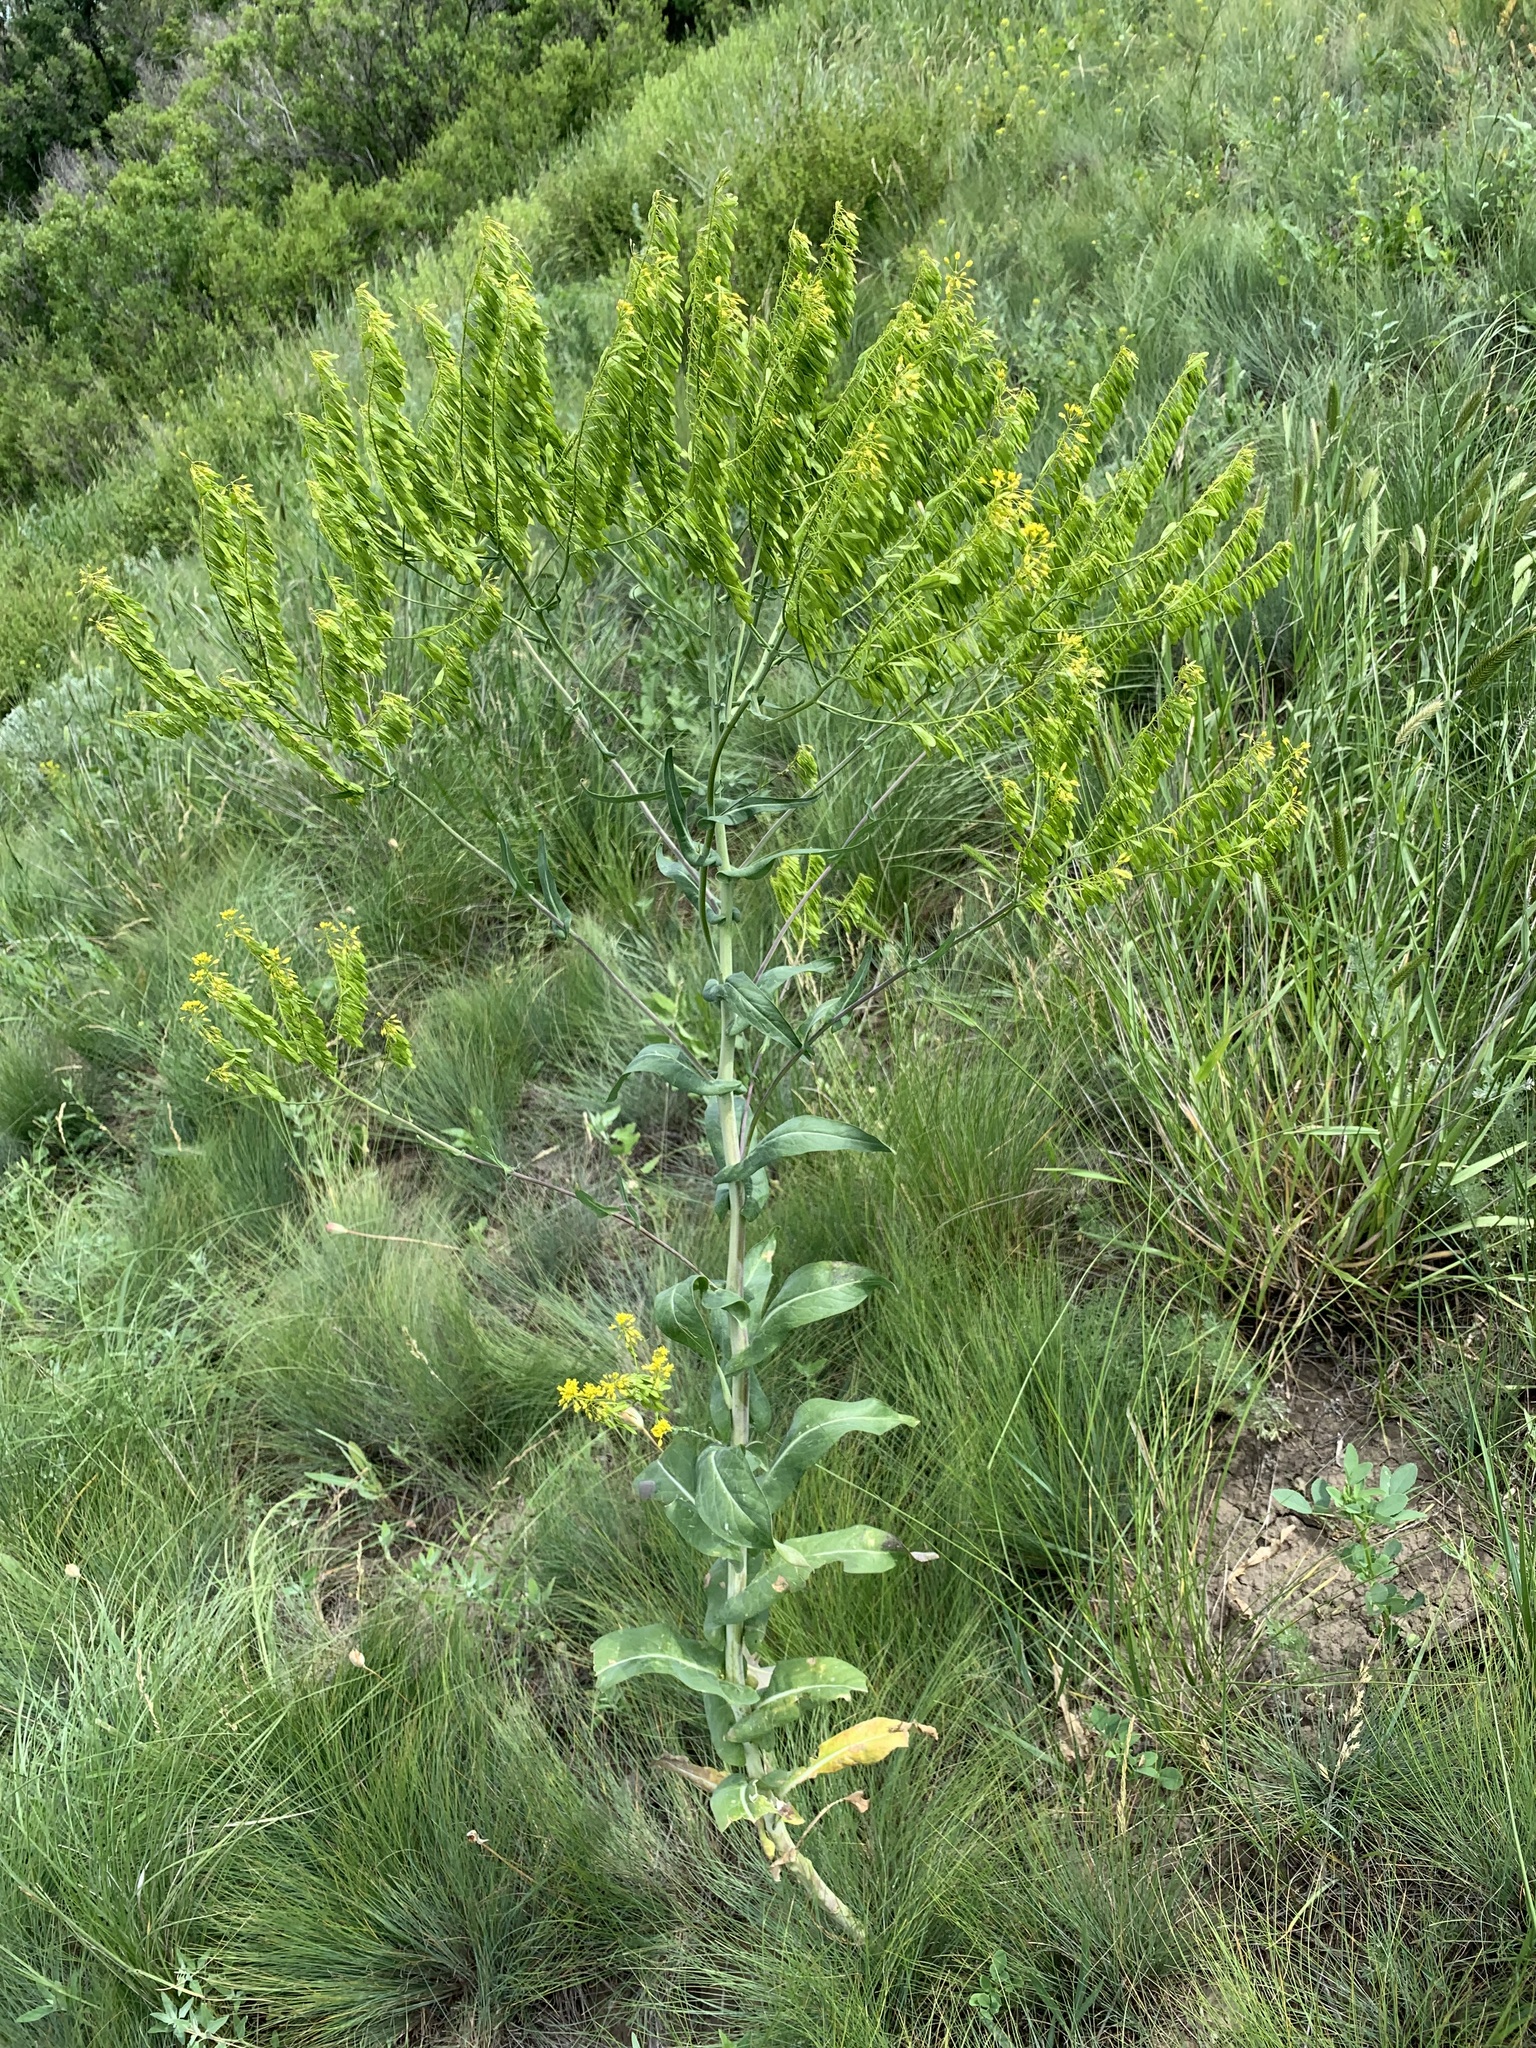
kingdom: Plantae
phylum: Tracheophyta
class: Magnoliopsida
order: Brassicales
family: Brassicaceae
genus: Isatis
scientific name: Isatis costata
